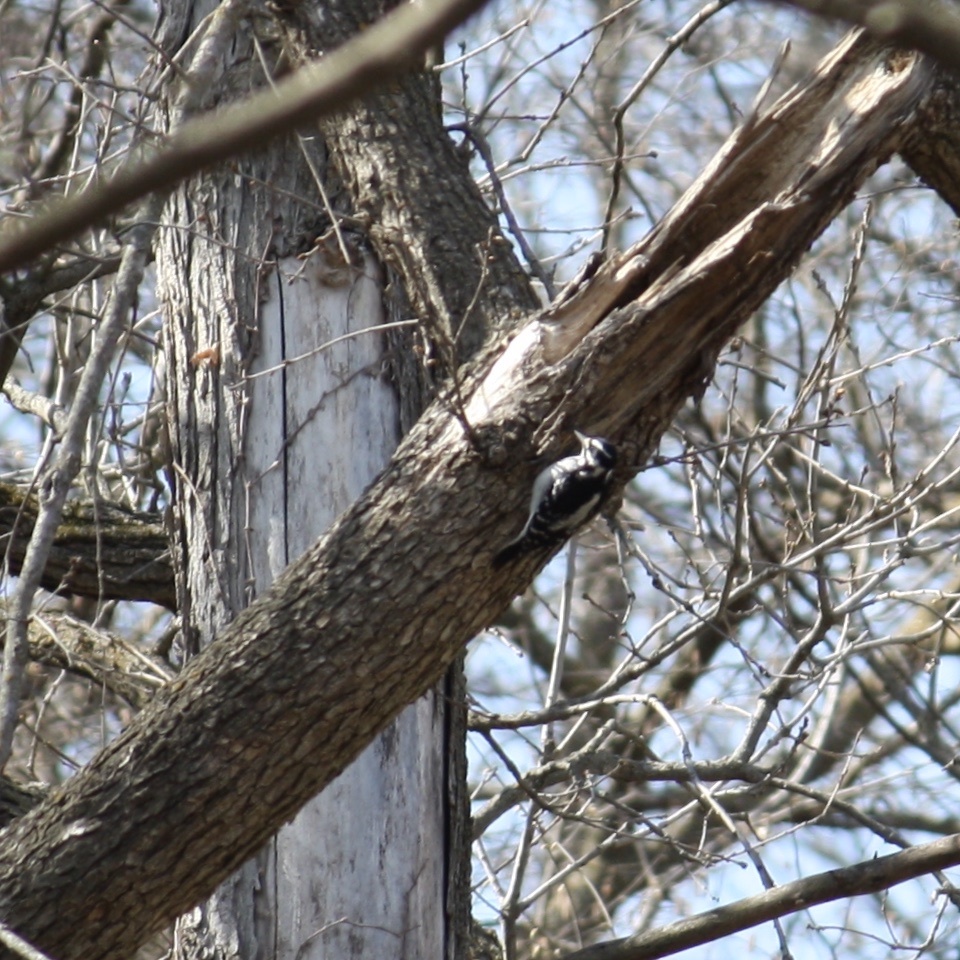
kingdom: Animalia
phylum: Chordata
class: Aves
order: Piciformes
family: Picidae
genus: Leuconotopicus
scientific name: Leuconotopicus villosus
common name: Hairy woodpecker
